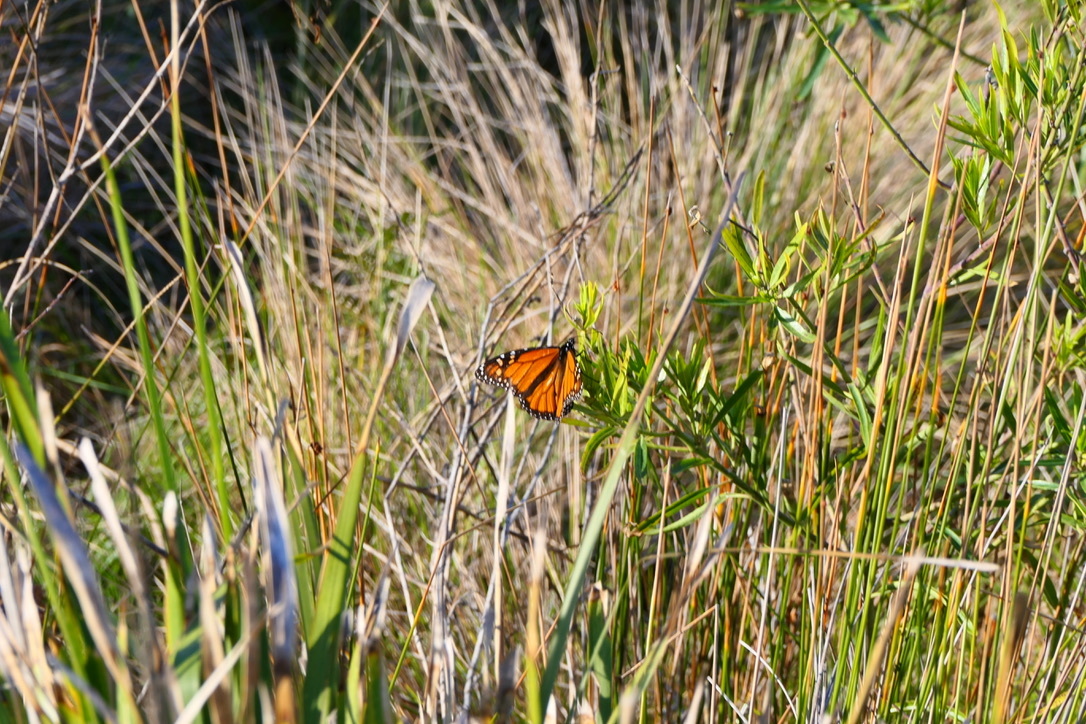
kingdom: Animalia
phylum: Arthropoda
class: Insecta
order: Lepidoptera
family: Nymphalidae
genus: Danaus
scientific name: Danaus plexippus
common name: Monarch
